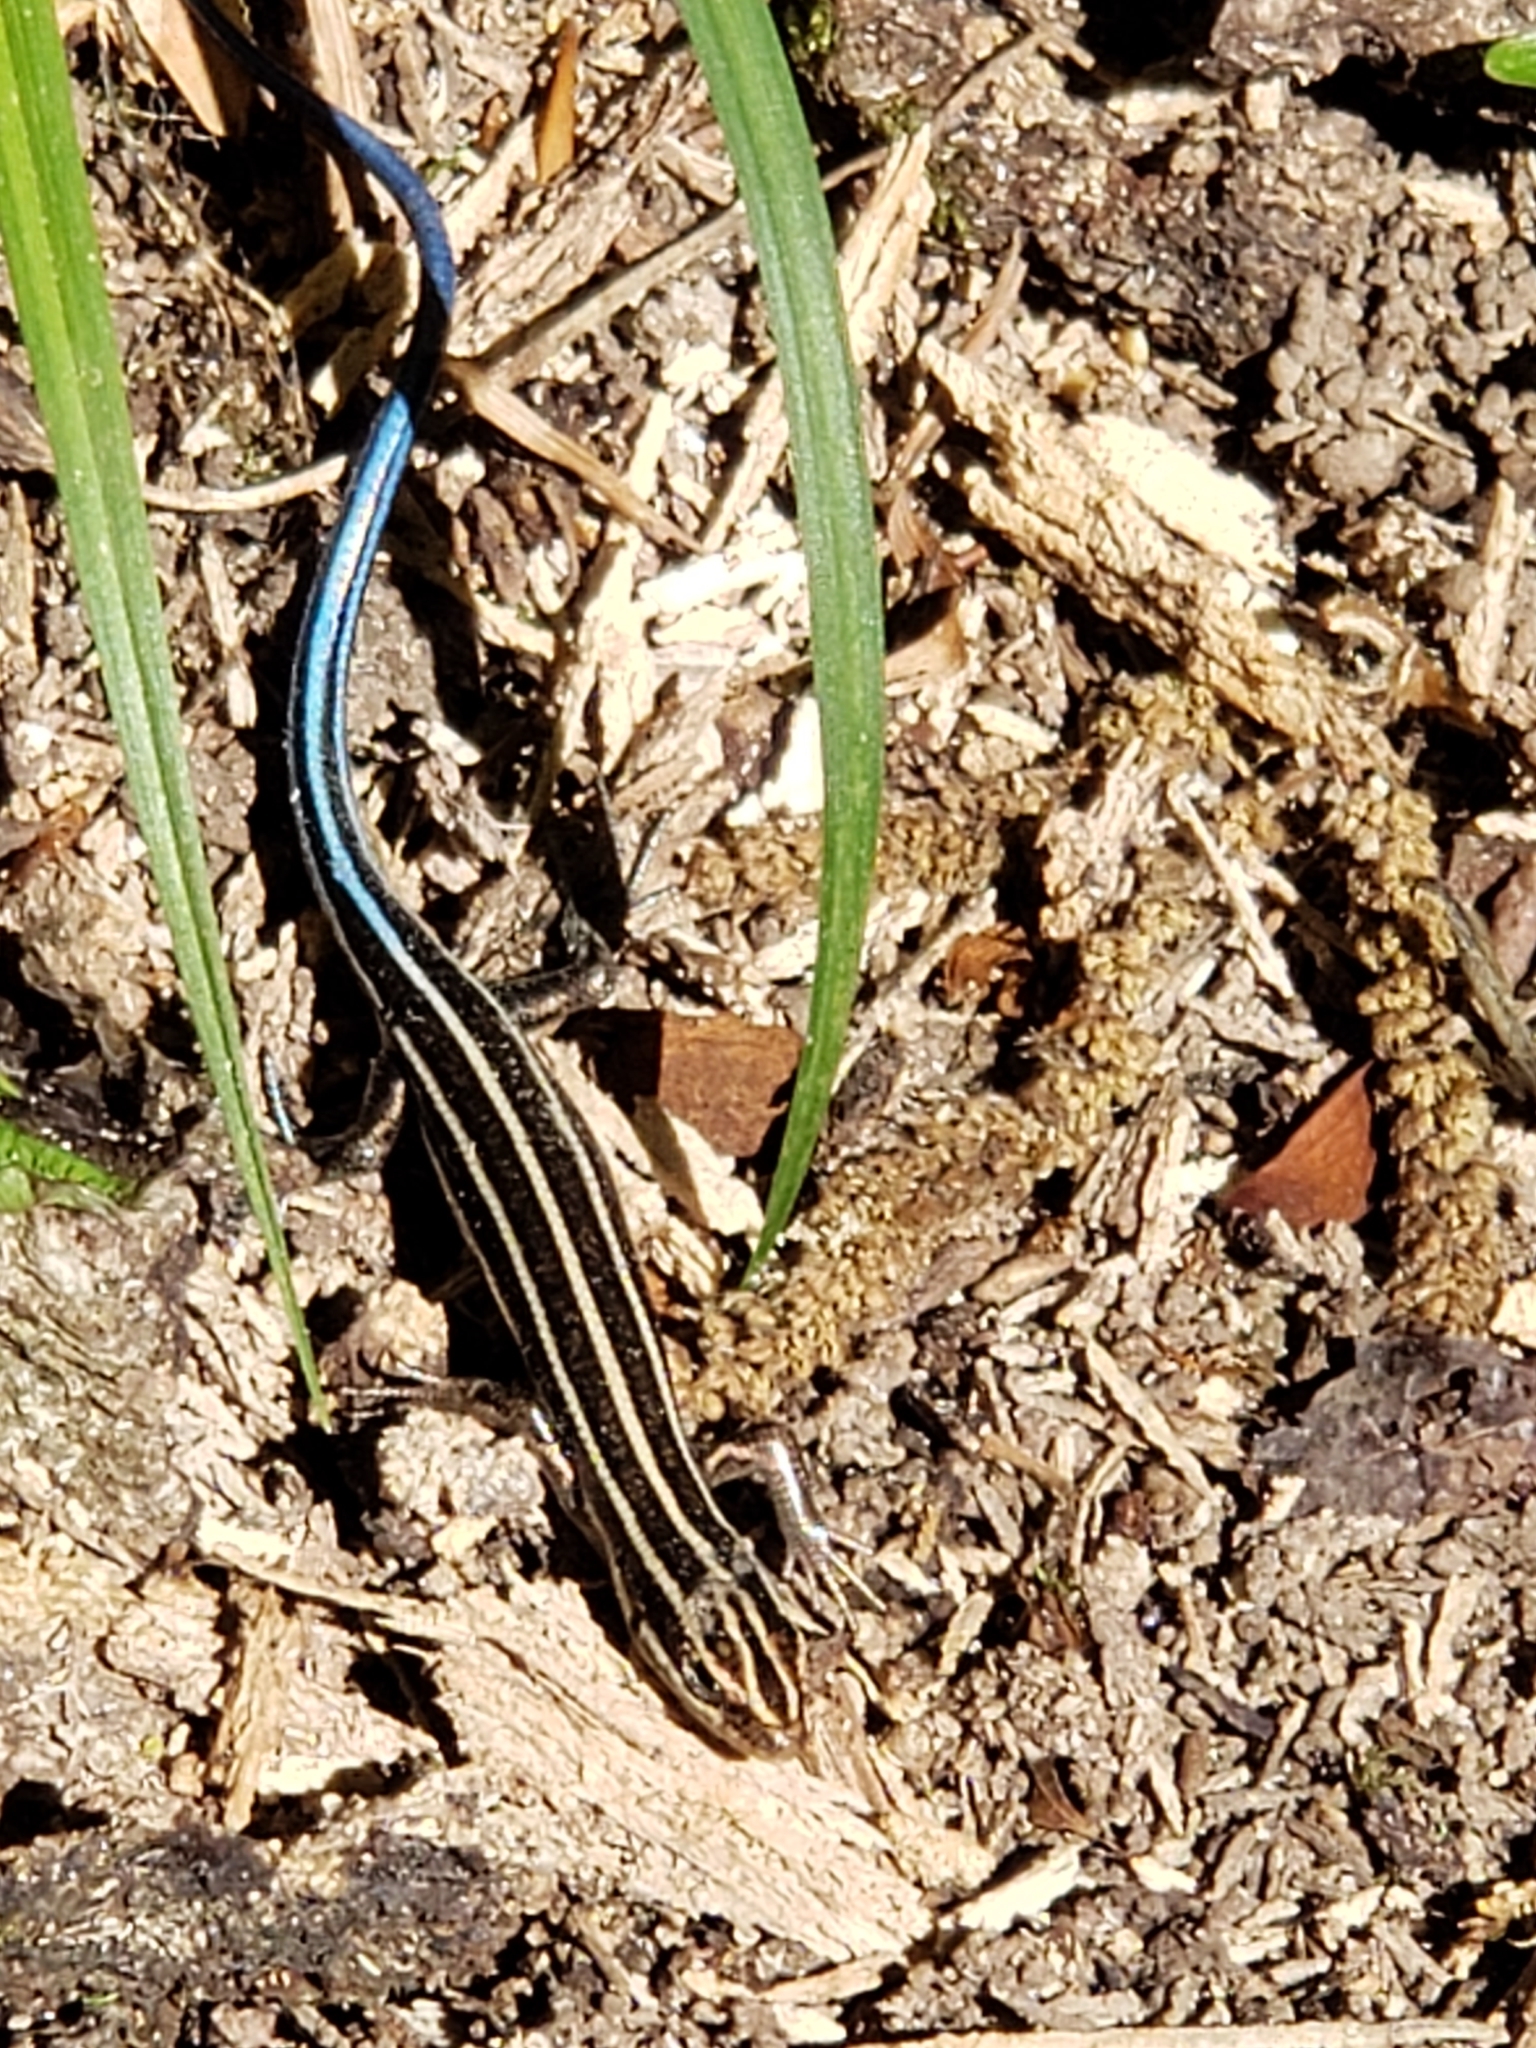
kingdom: Animalia
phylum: Chordata
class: Squamata
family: Scincidae
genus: Plestiodon
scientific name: Plestiodon fasciatus
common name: Five-lined skink
